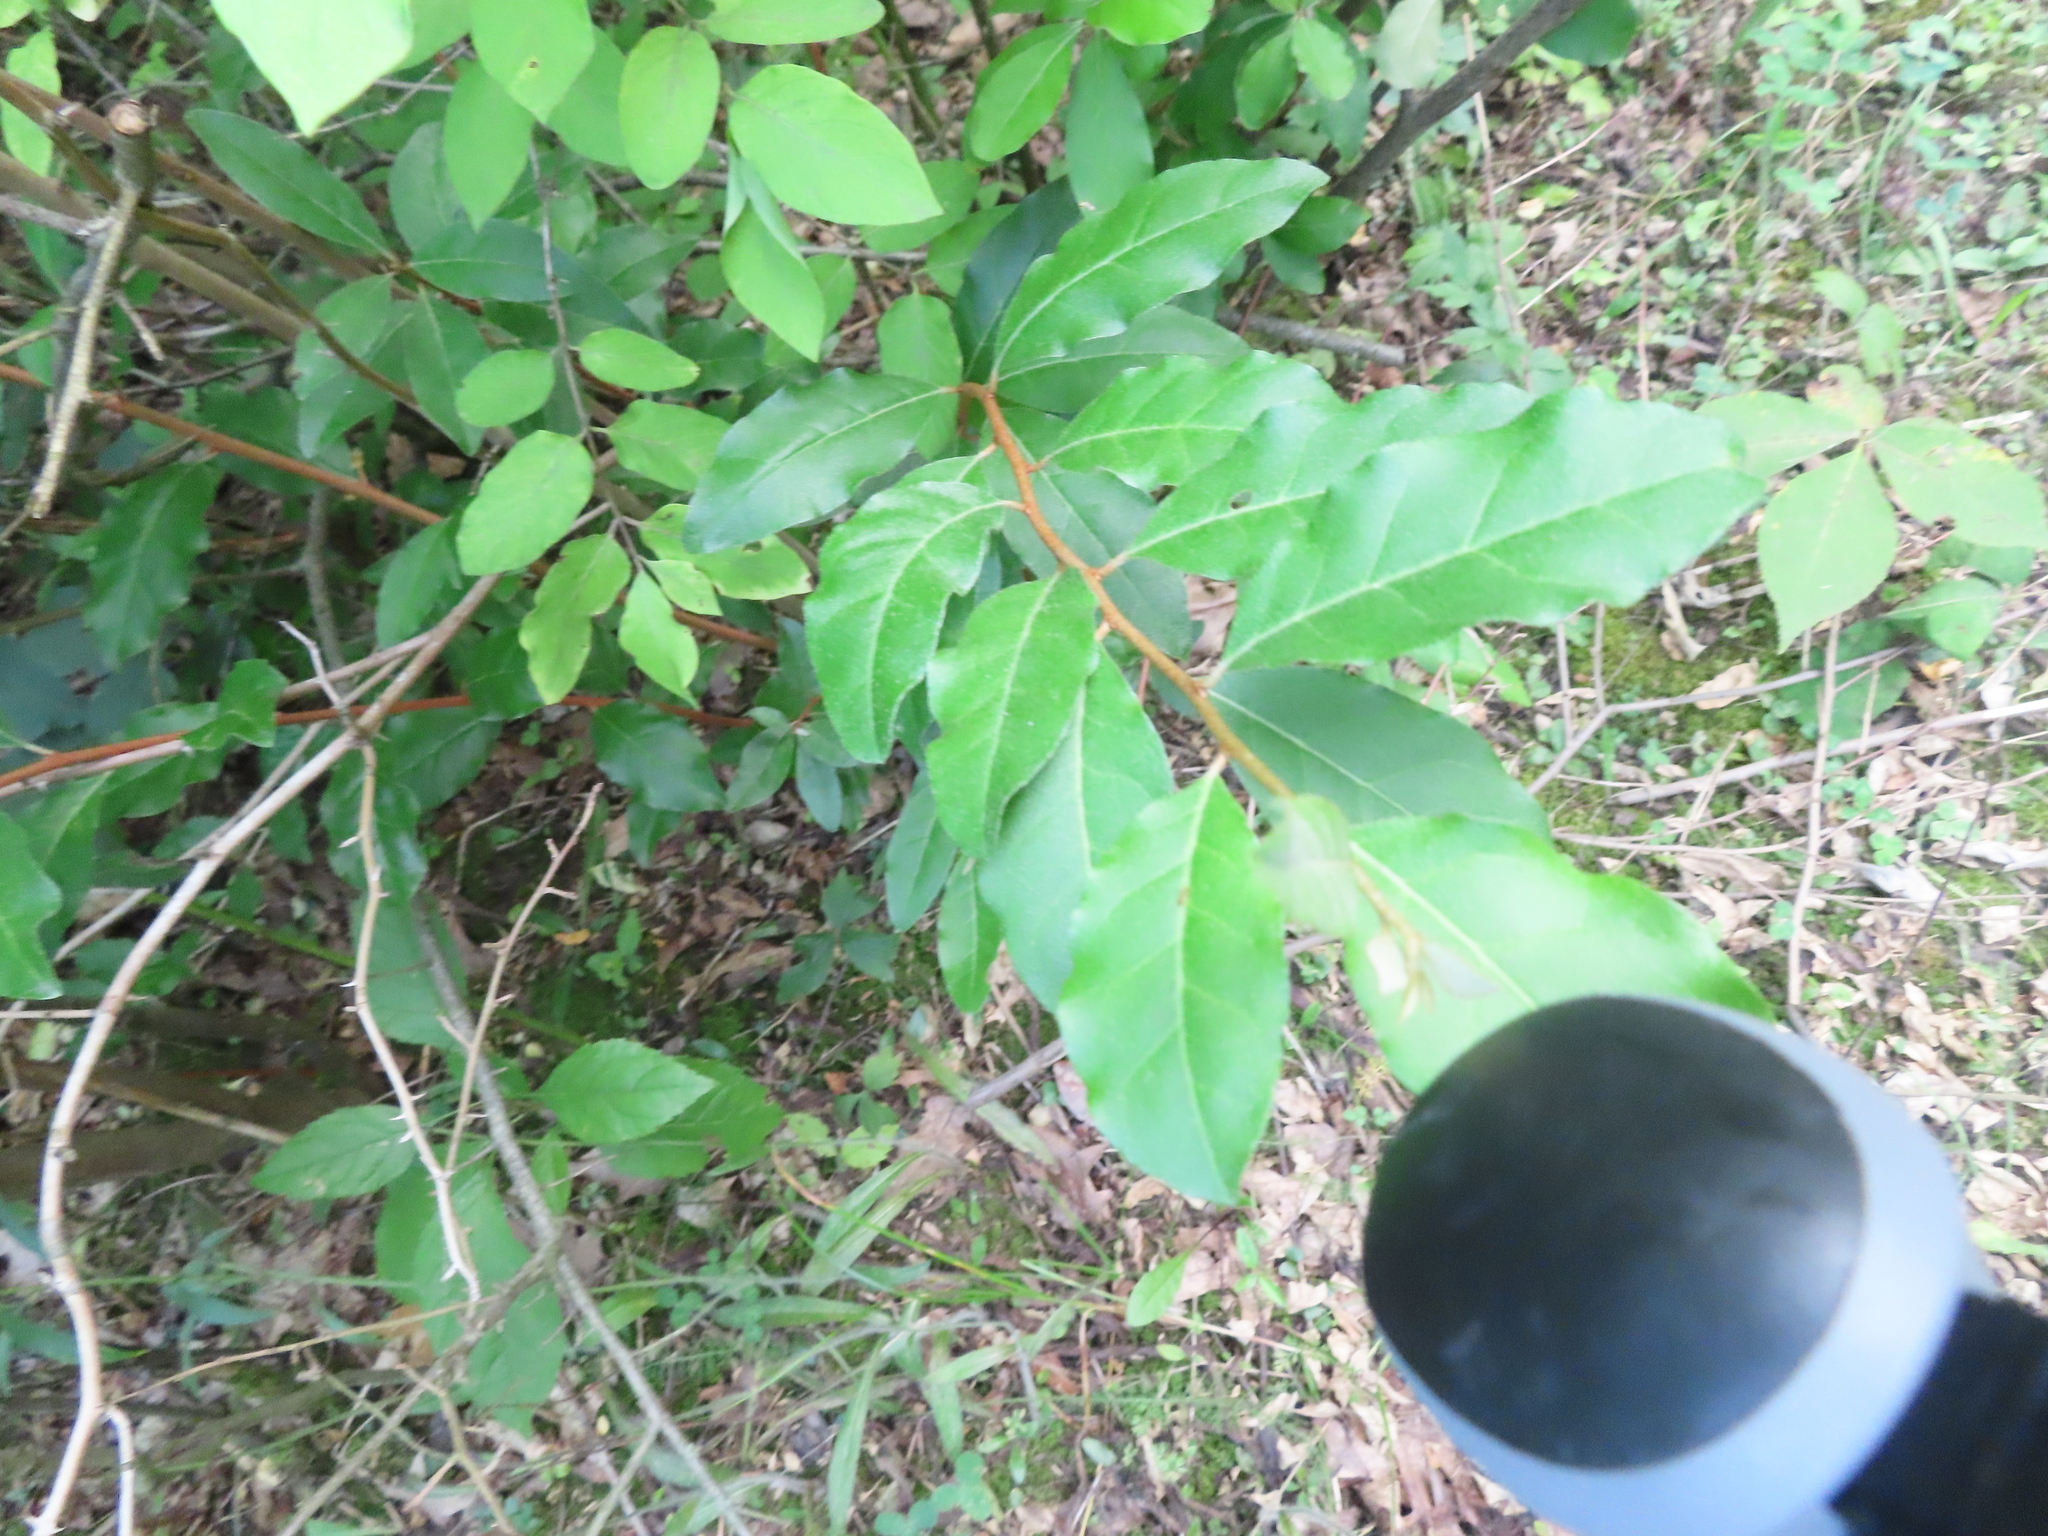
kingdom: Plantae
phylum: Tracheophyta
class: Magnoliopsida
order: Rosales
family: Elaeagnaceae
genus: Elaeagnus
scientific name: Elaeagnus umbellata
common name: Autumn olive
